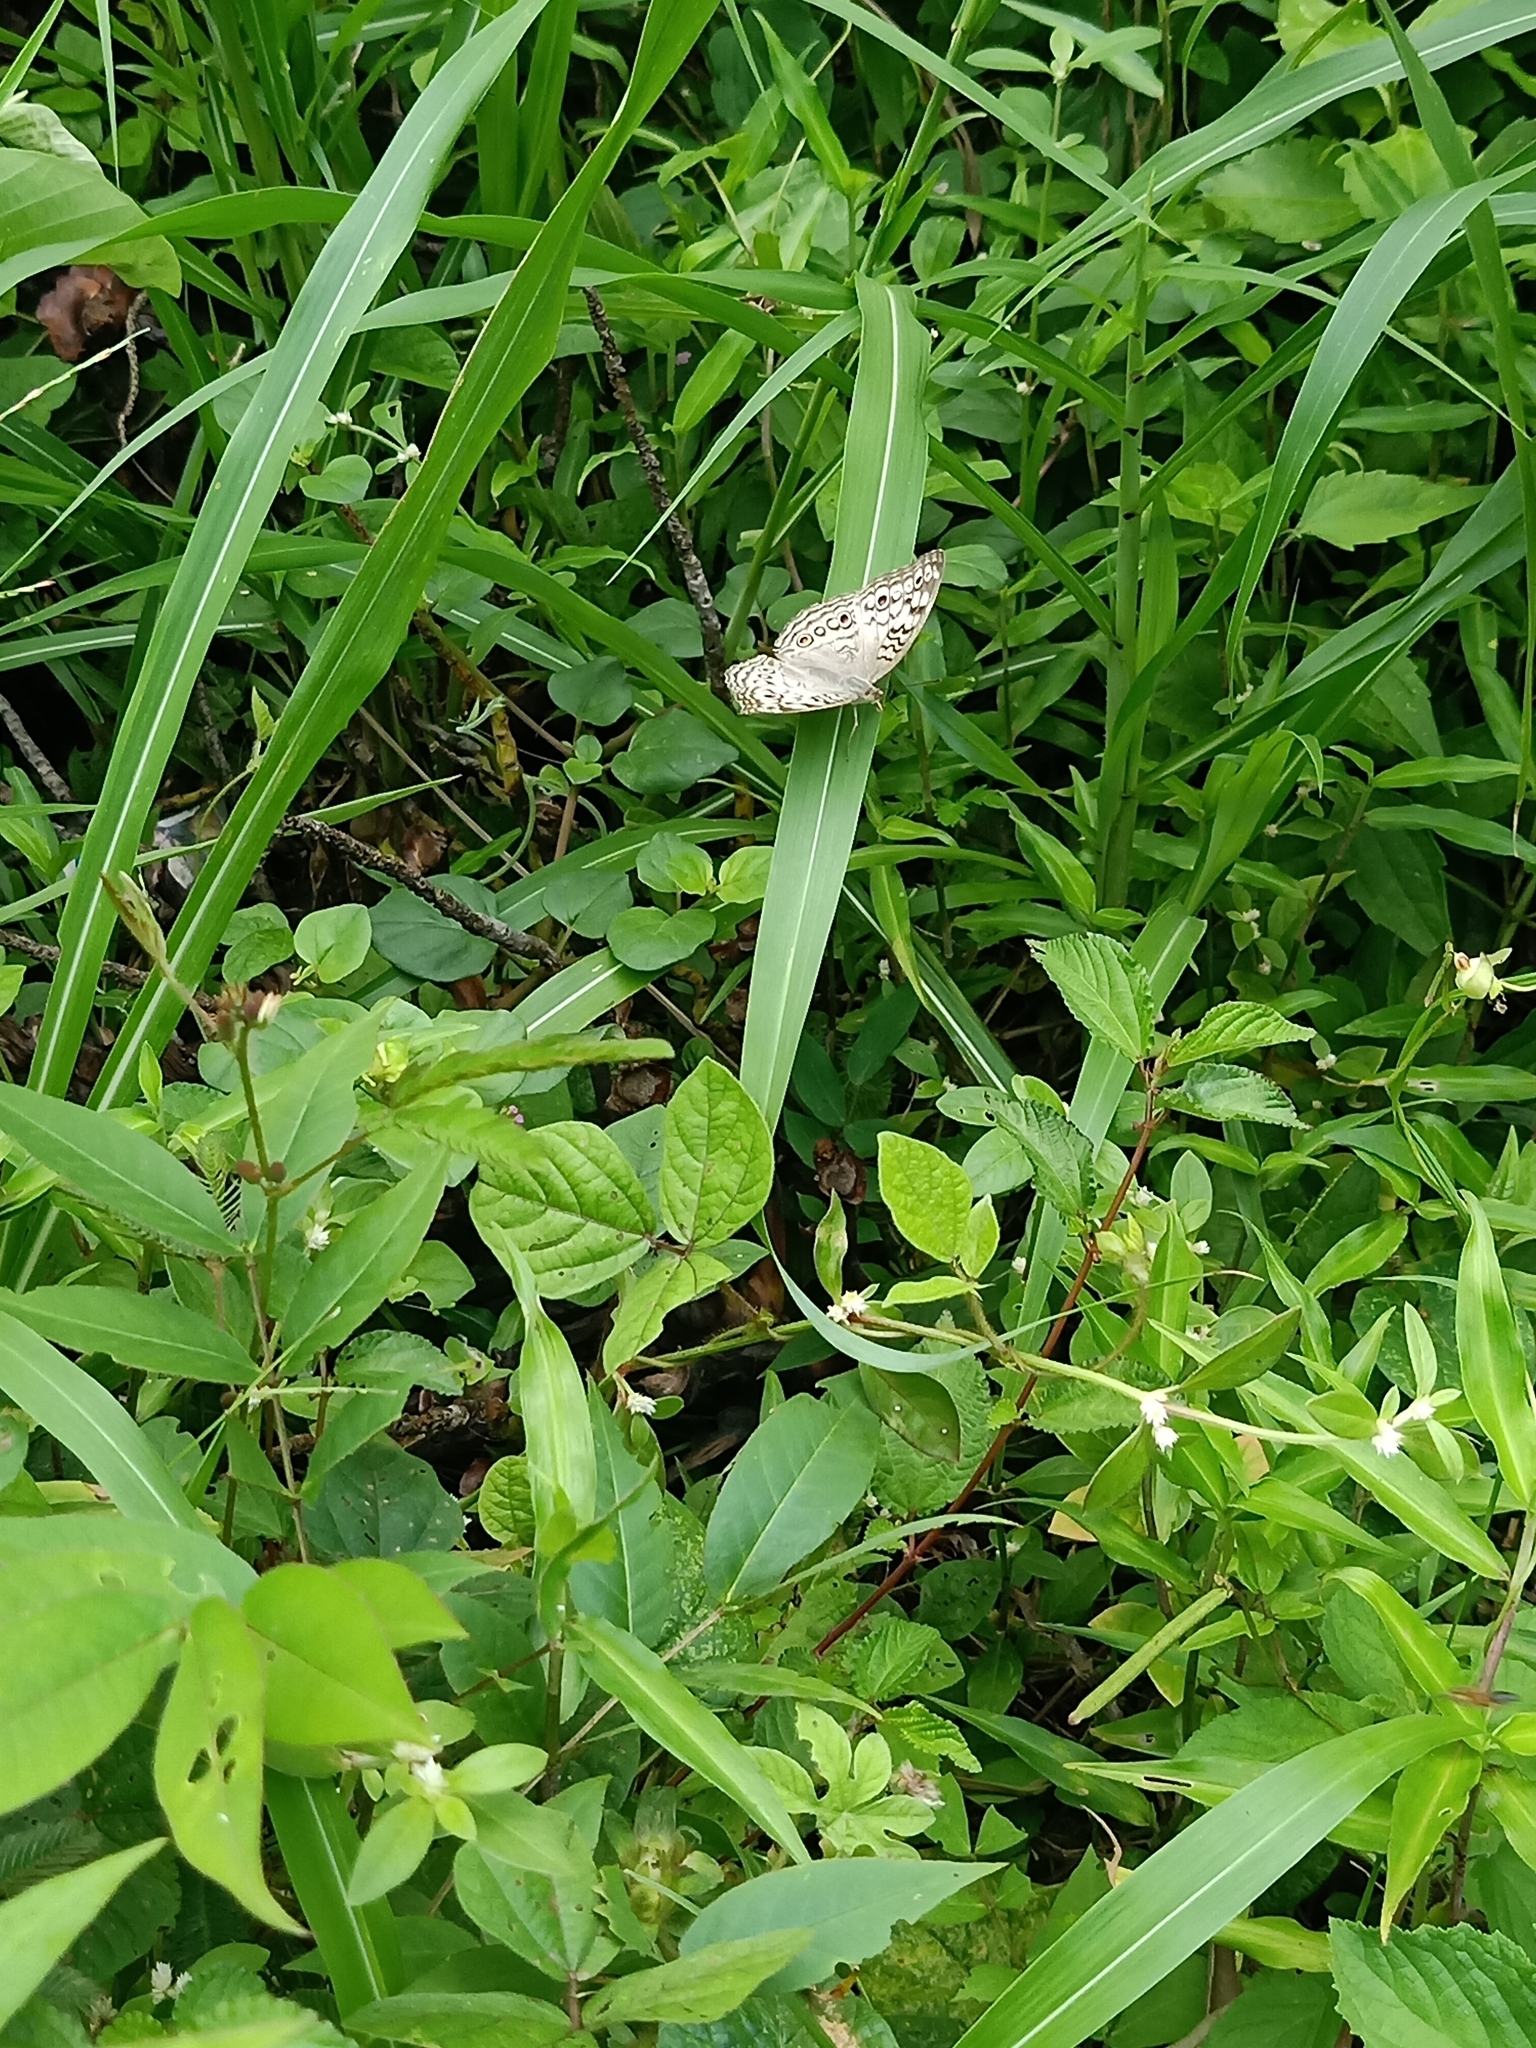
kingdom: Animalia
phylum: Arthropoda
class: Insecta
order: Lepidoptera
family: Nymphalidae
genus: Junonia
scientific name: Junonia atlites
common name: Grey pansy
